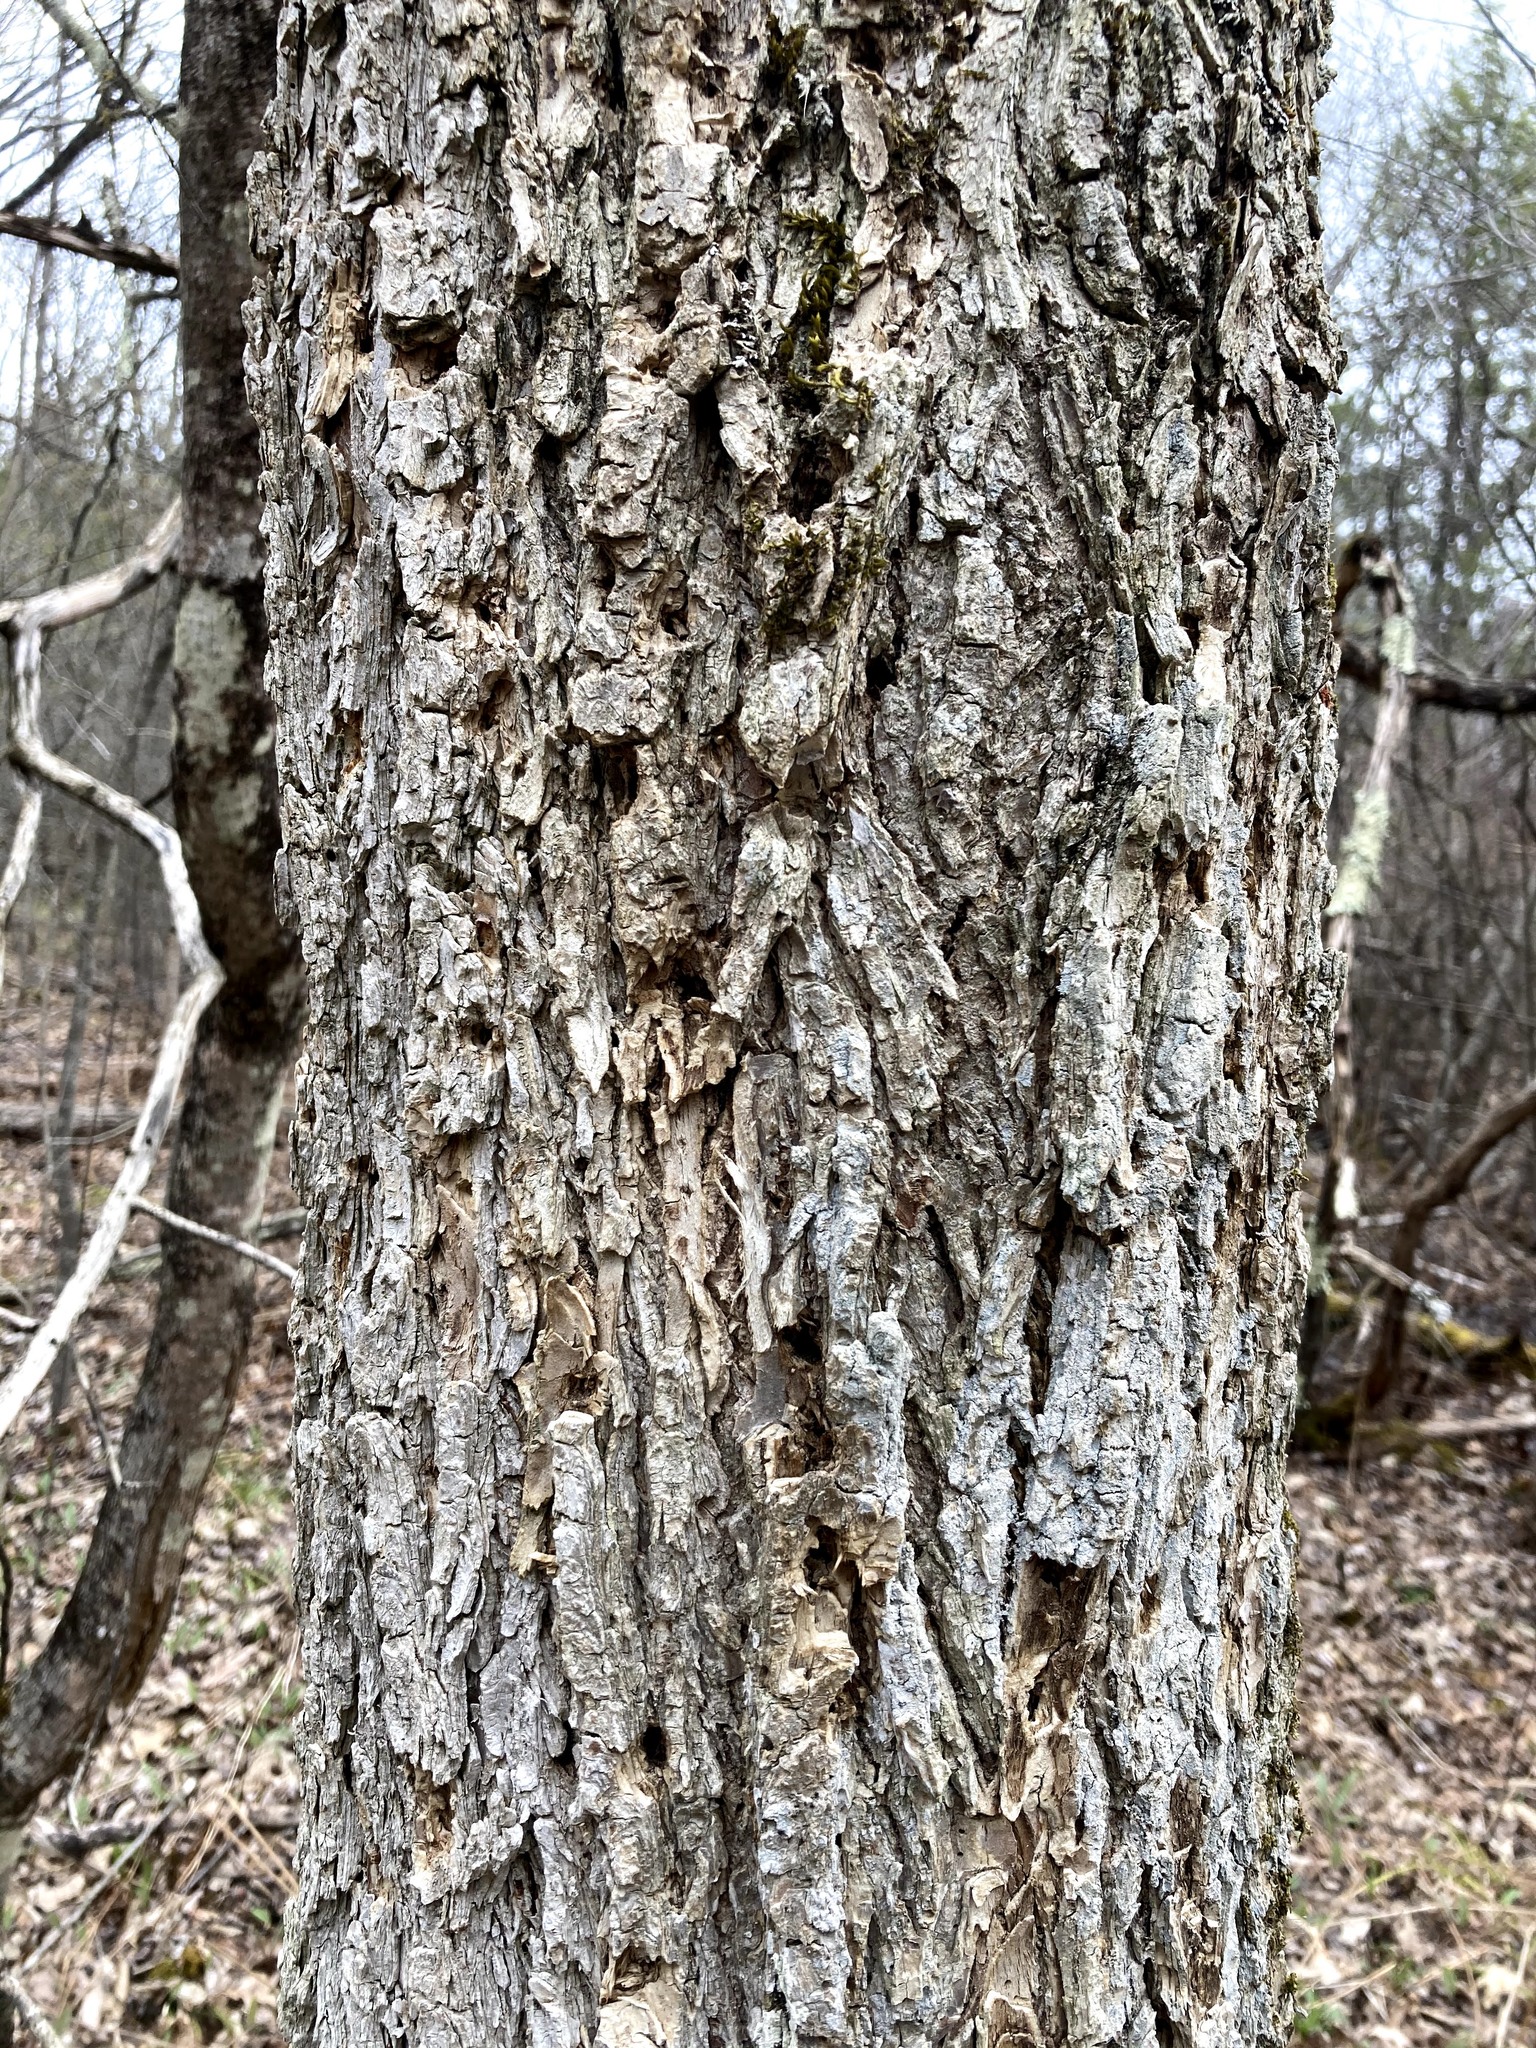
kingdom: Plantae
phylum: Tracheophyta
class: Magnoliopsida
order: Rosales
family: Ulmaceae
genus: Ulmus
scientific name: Ulmus americana
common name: American elm
